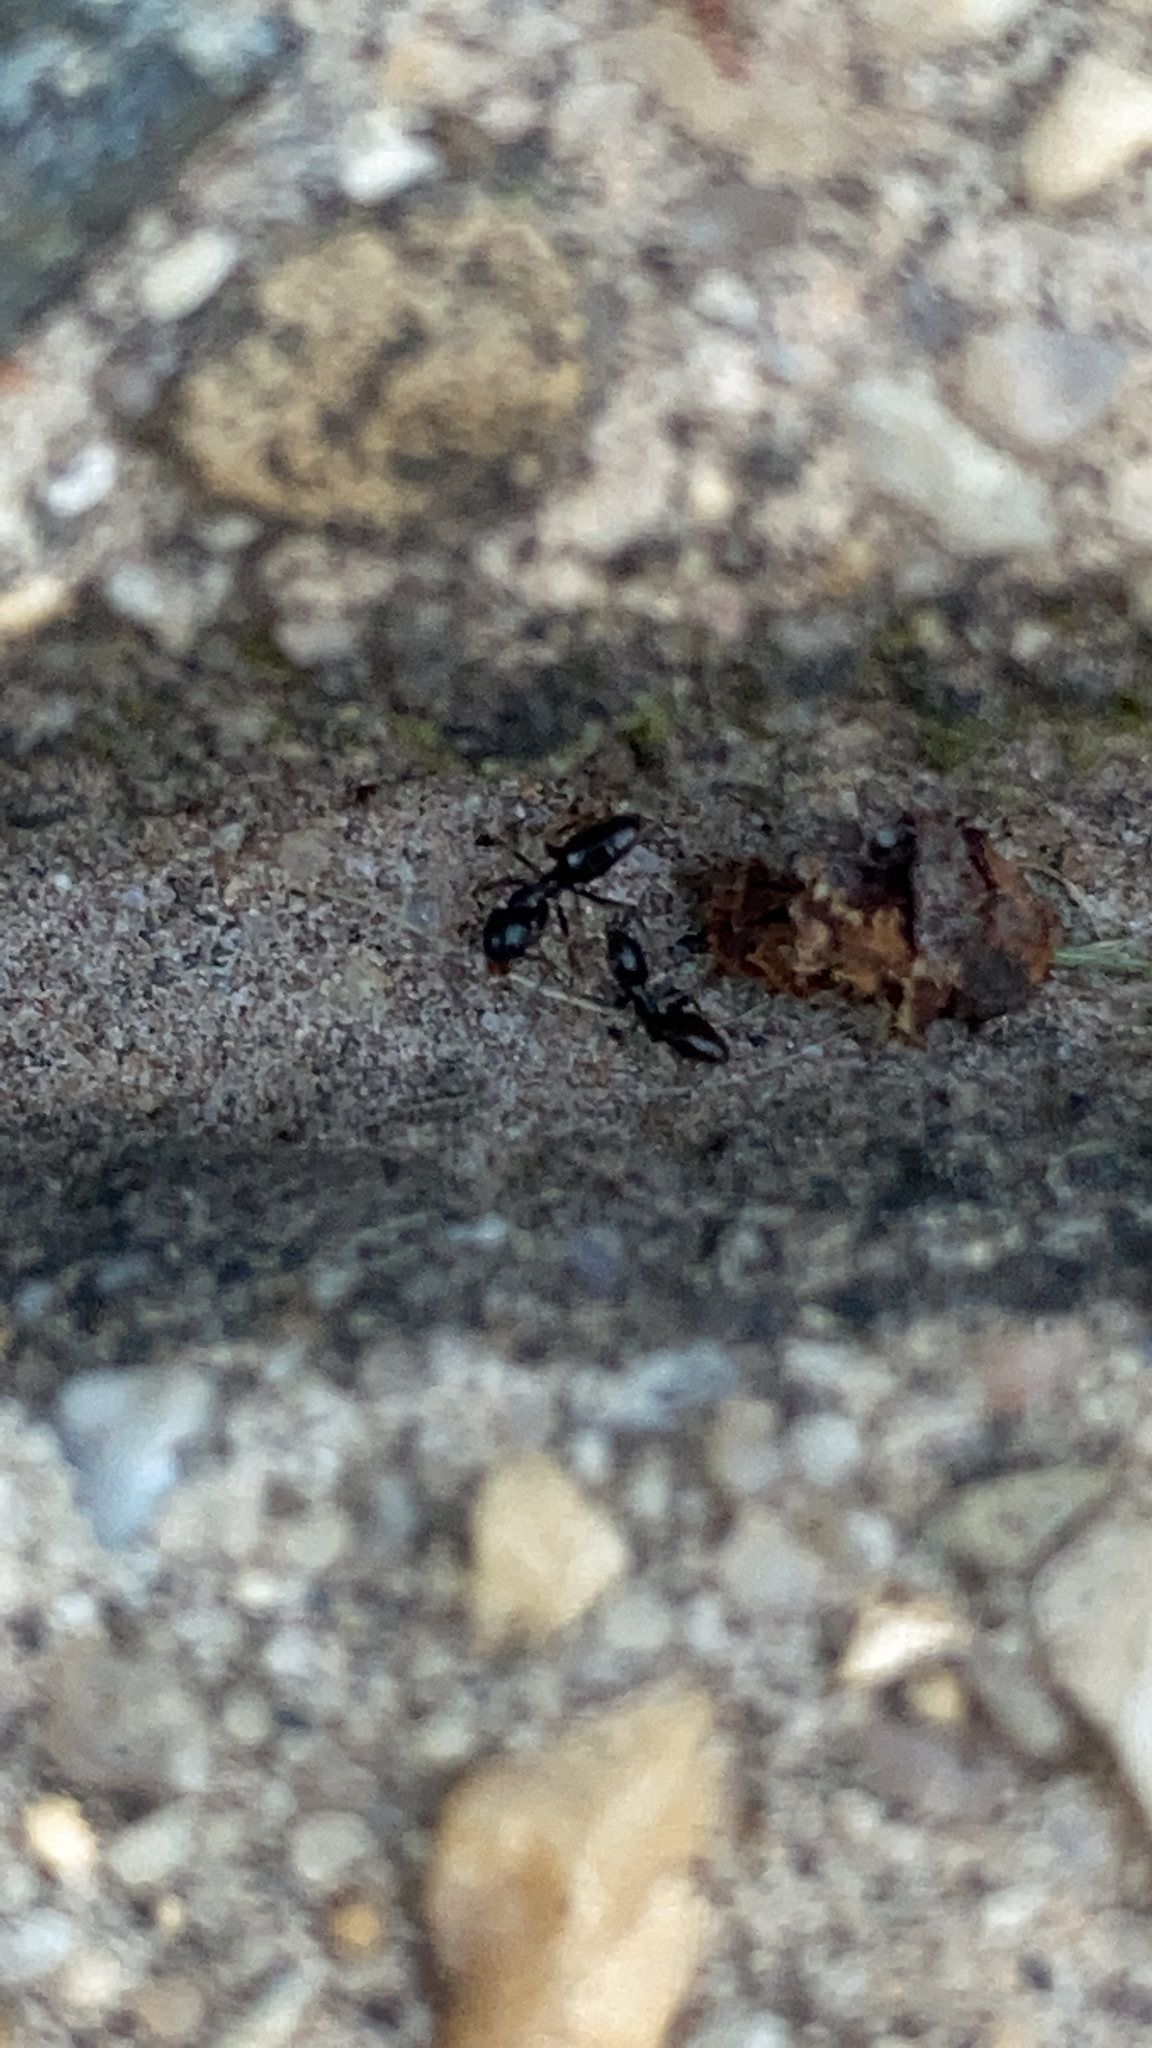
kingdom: Animalia
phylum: Arthropoda
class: Insecta
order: Hymenoptera
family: Formicidae
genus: Tapinoma
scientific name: Tapinoma sessile
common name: Odorous house ant
